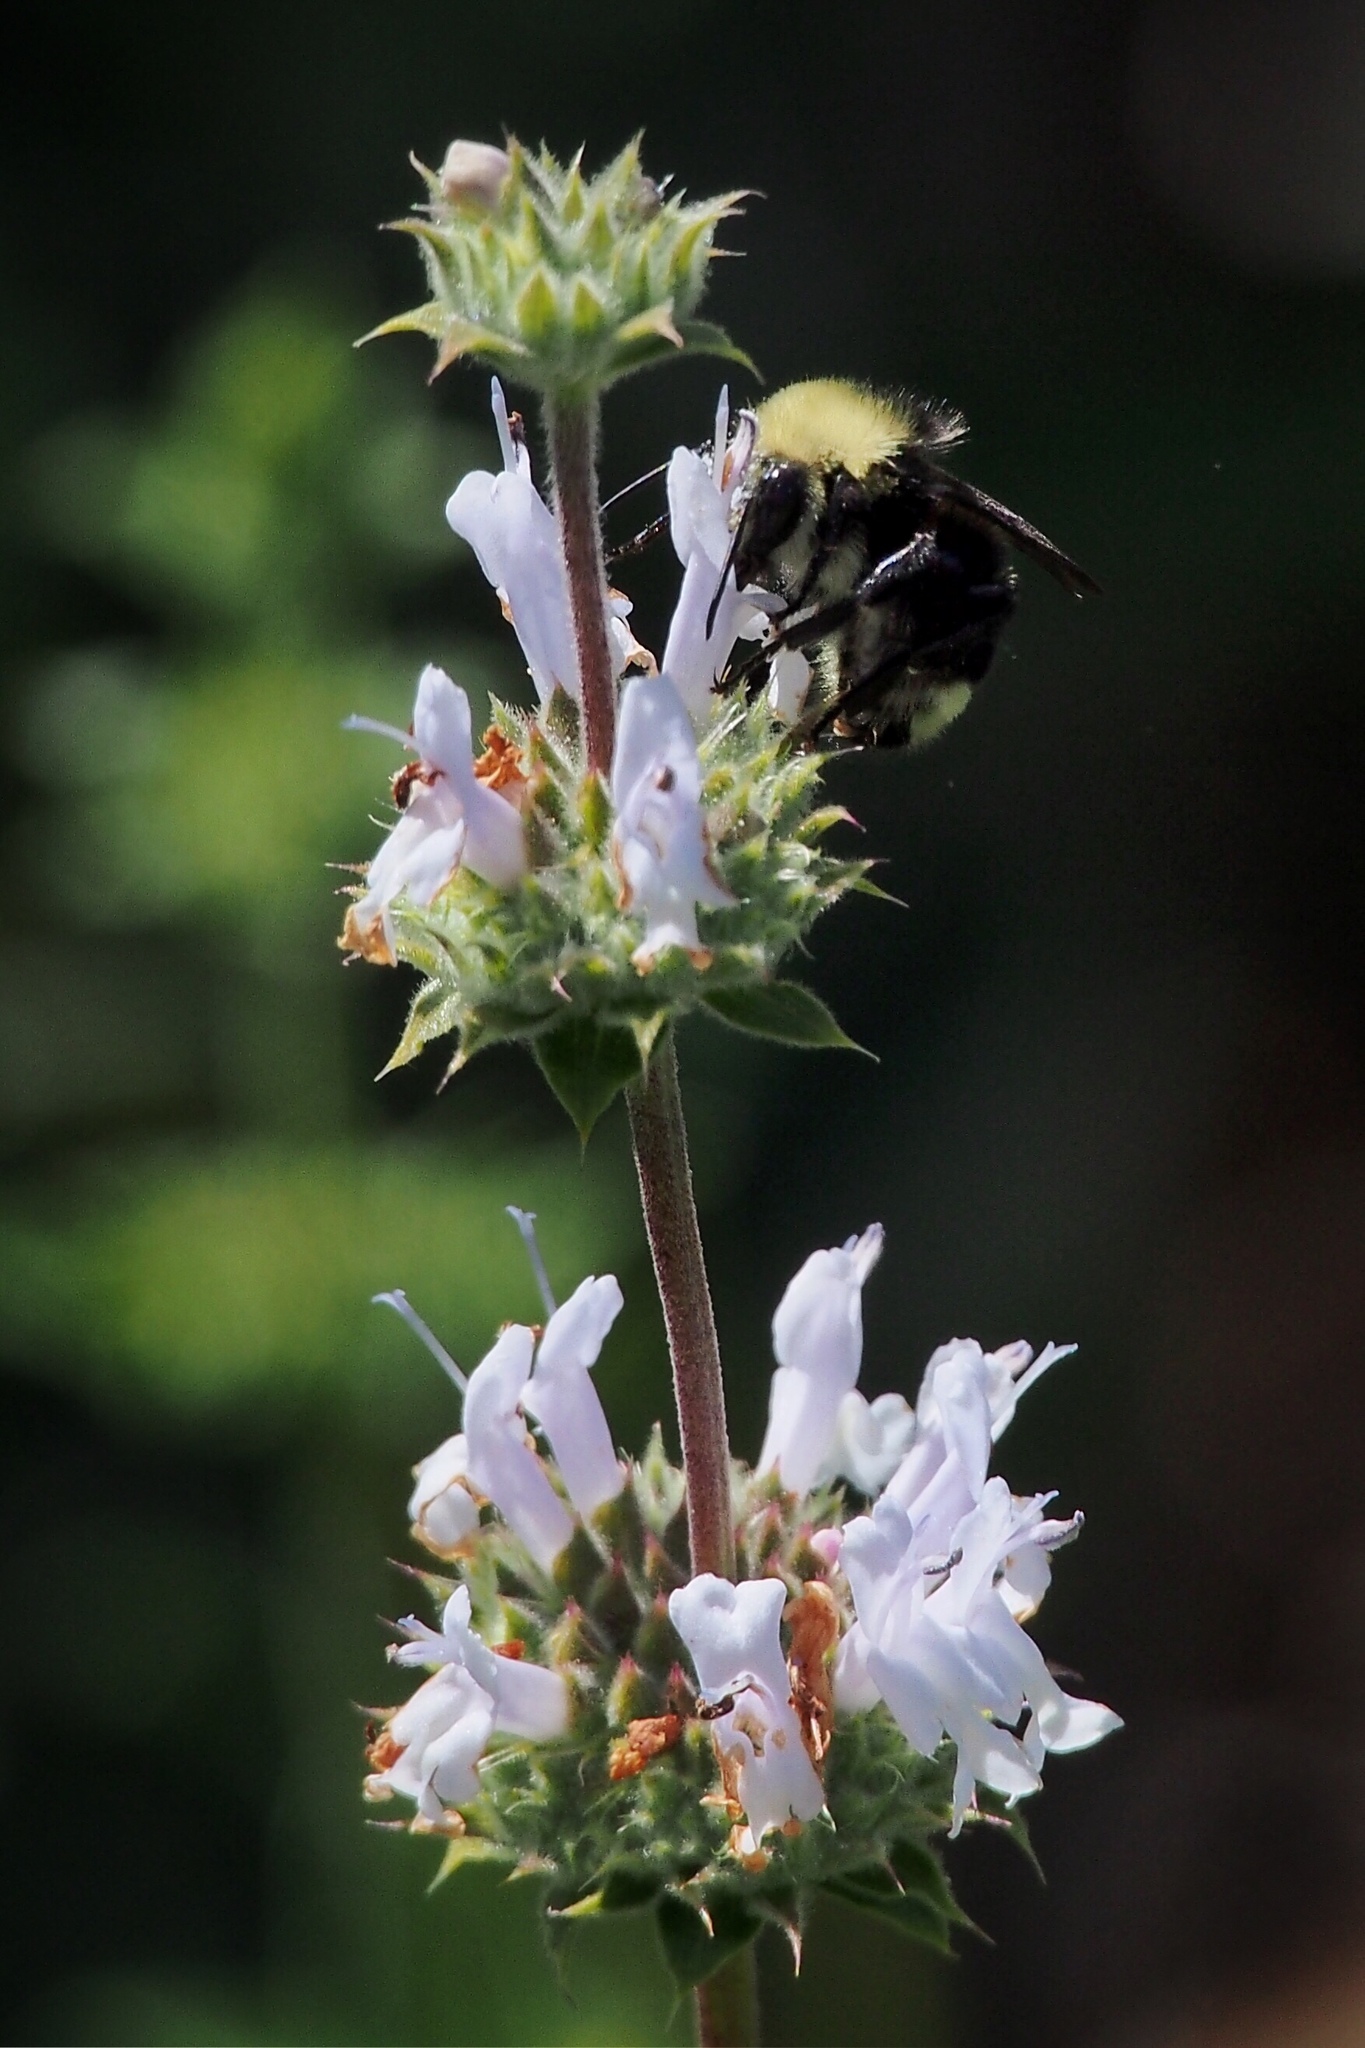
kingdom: Animalia
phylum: Arthropoda
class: Insecta
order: Hymenoptera
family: Apidae
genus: Bombus
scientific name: Bombus vosnesenskii
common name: Vosnesensky bumble bee
